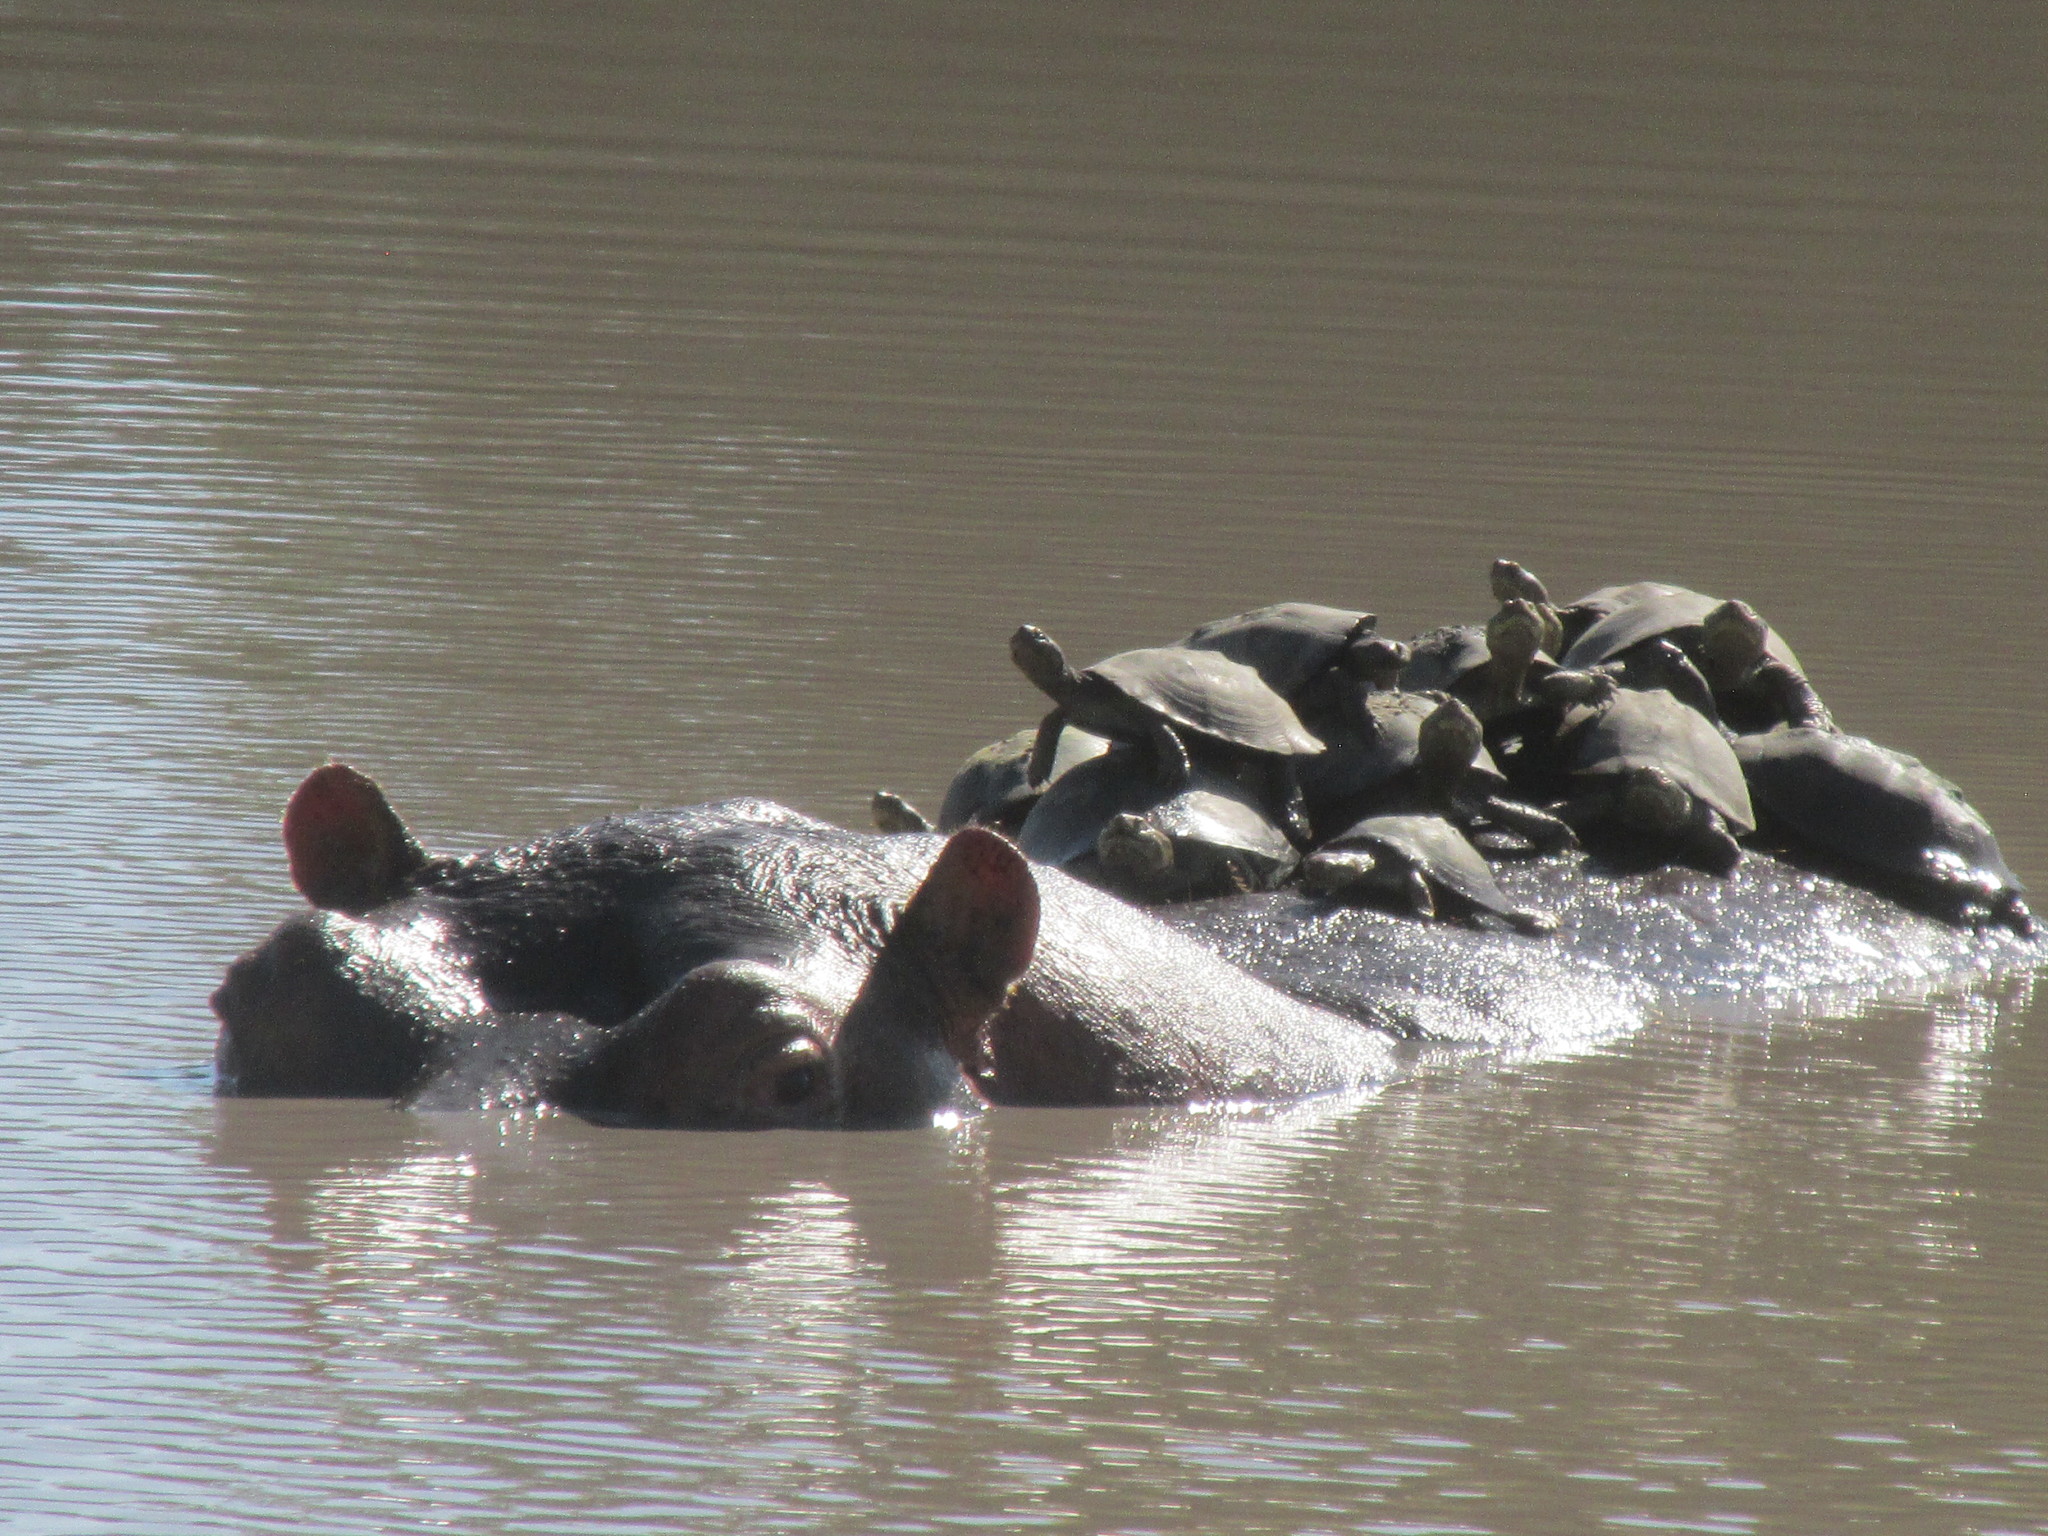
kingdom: Animalia
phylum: Chordata
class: Testudines
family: Pelomedusidae
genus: Pelusios
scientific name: Pelusios sinuatus
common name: Serrated hinged terrapin
